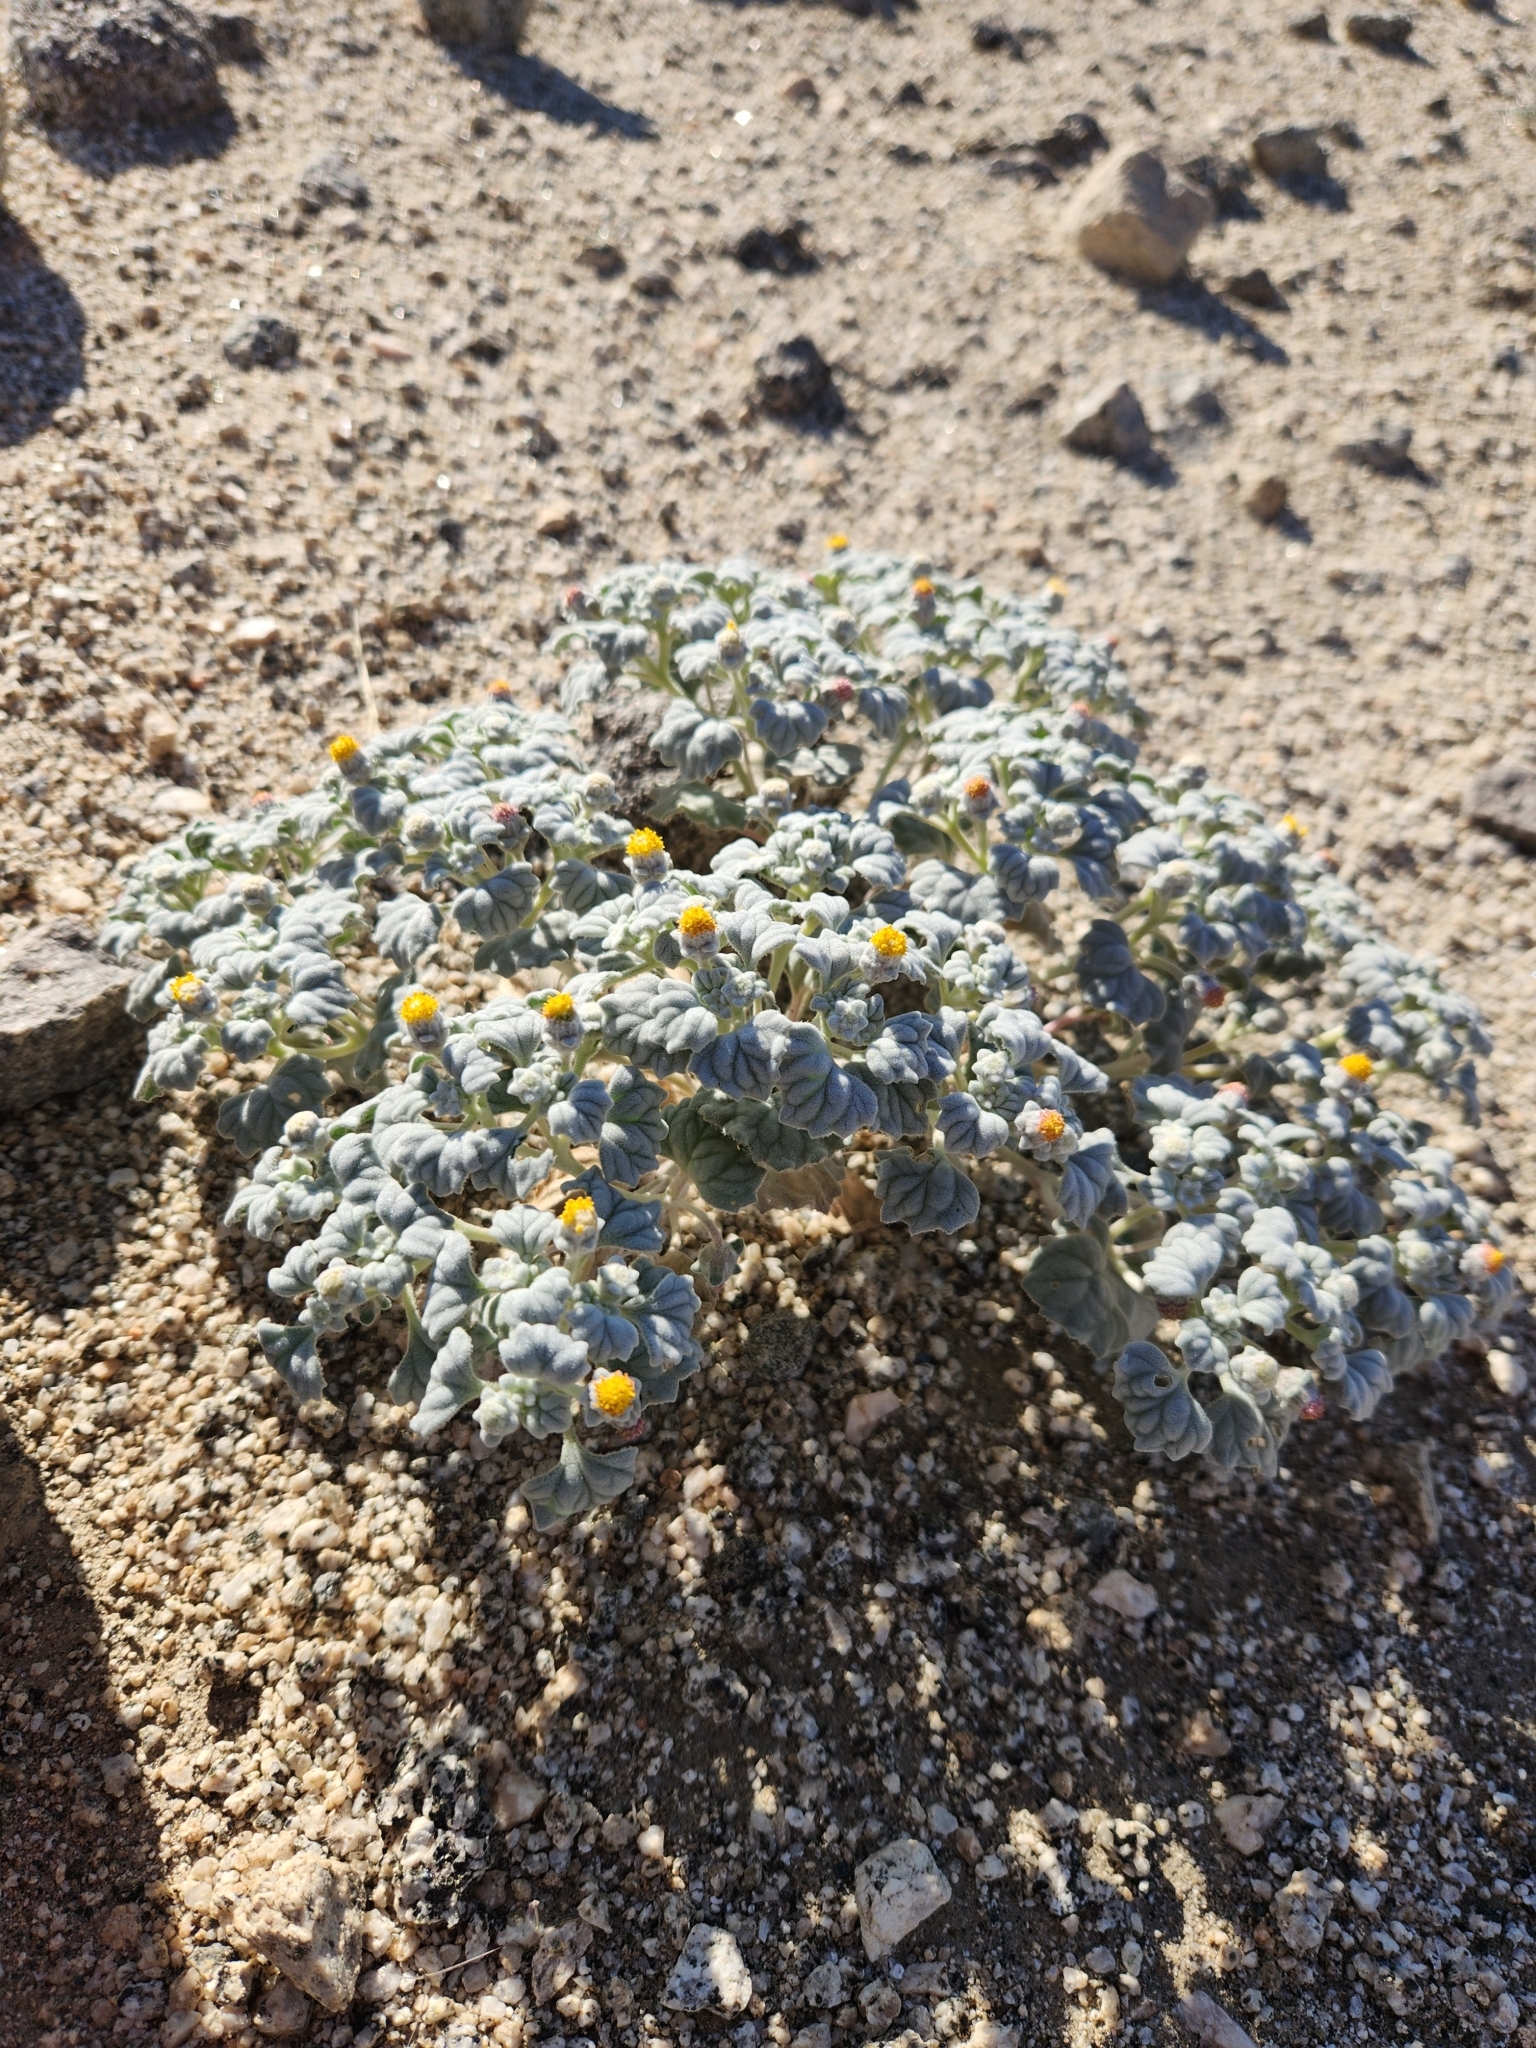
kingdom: Plantae
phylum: Tracheophyta
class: Magnoliopsida
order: Asterales
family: Asteraceae
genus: Psathyrotes
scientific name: Psathyrotes ramosissima
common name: Turtleback
